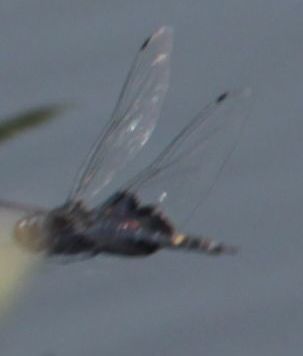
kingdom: Animalia
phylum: Arthropoda
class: Insecta
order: Odonata
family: Libellulidae
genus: Tramea
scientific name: Tramea lacerata
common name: Black saddlebags
